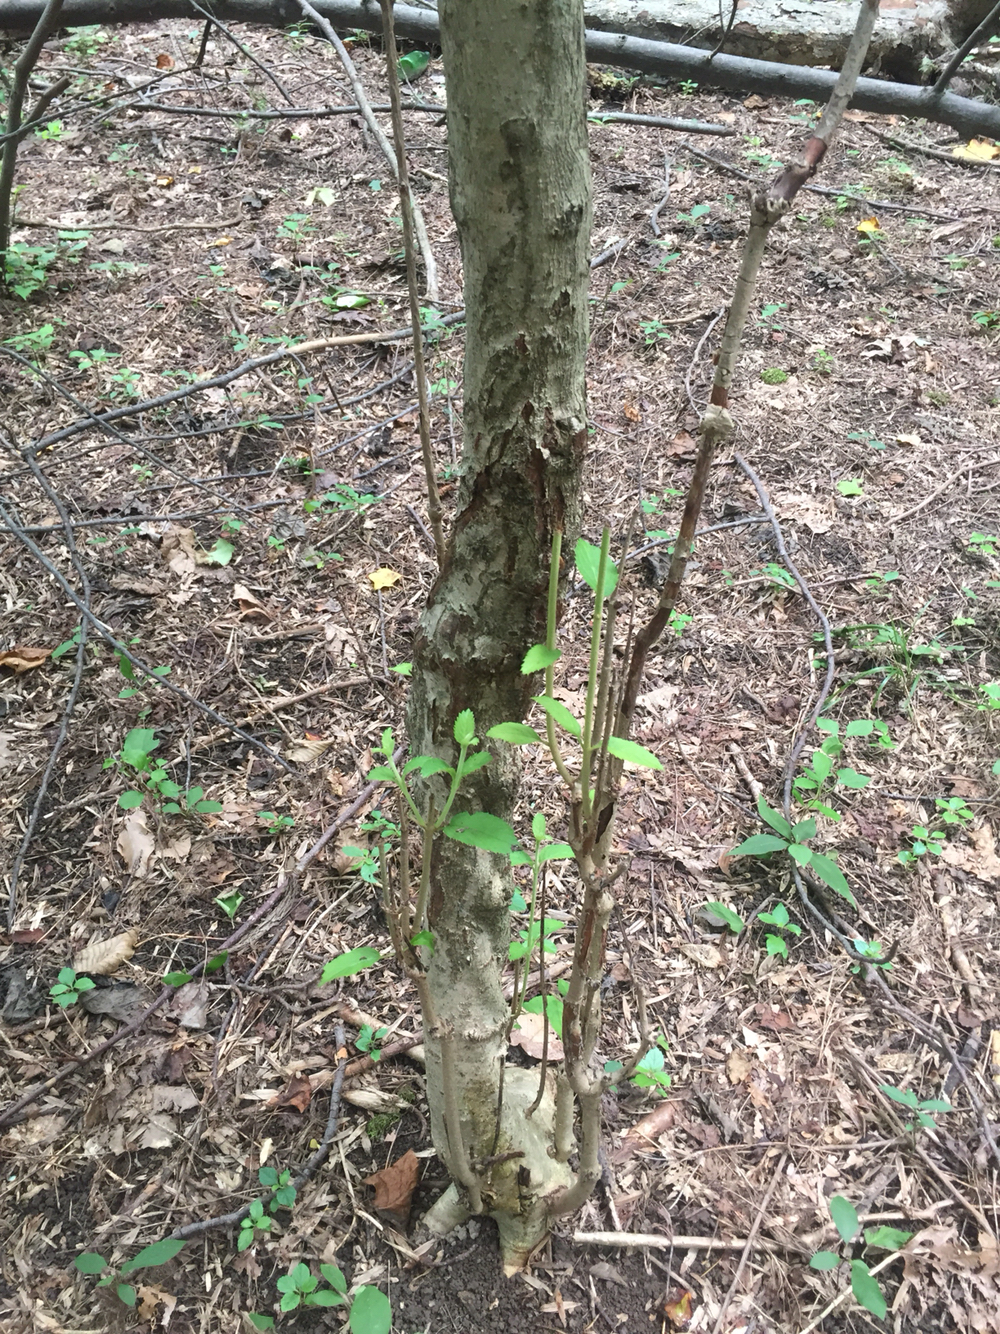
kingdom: Plantae
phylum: Tracheophyta
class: Magnoliopsida
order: Dipsacales
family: Viburnaceae
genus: Viburnum
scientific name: Viburnum plicatum
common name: Japanese snowball
